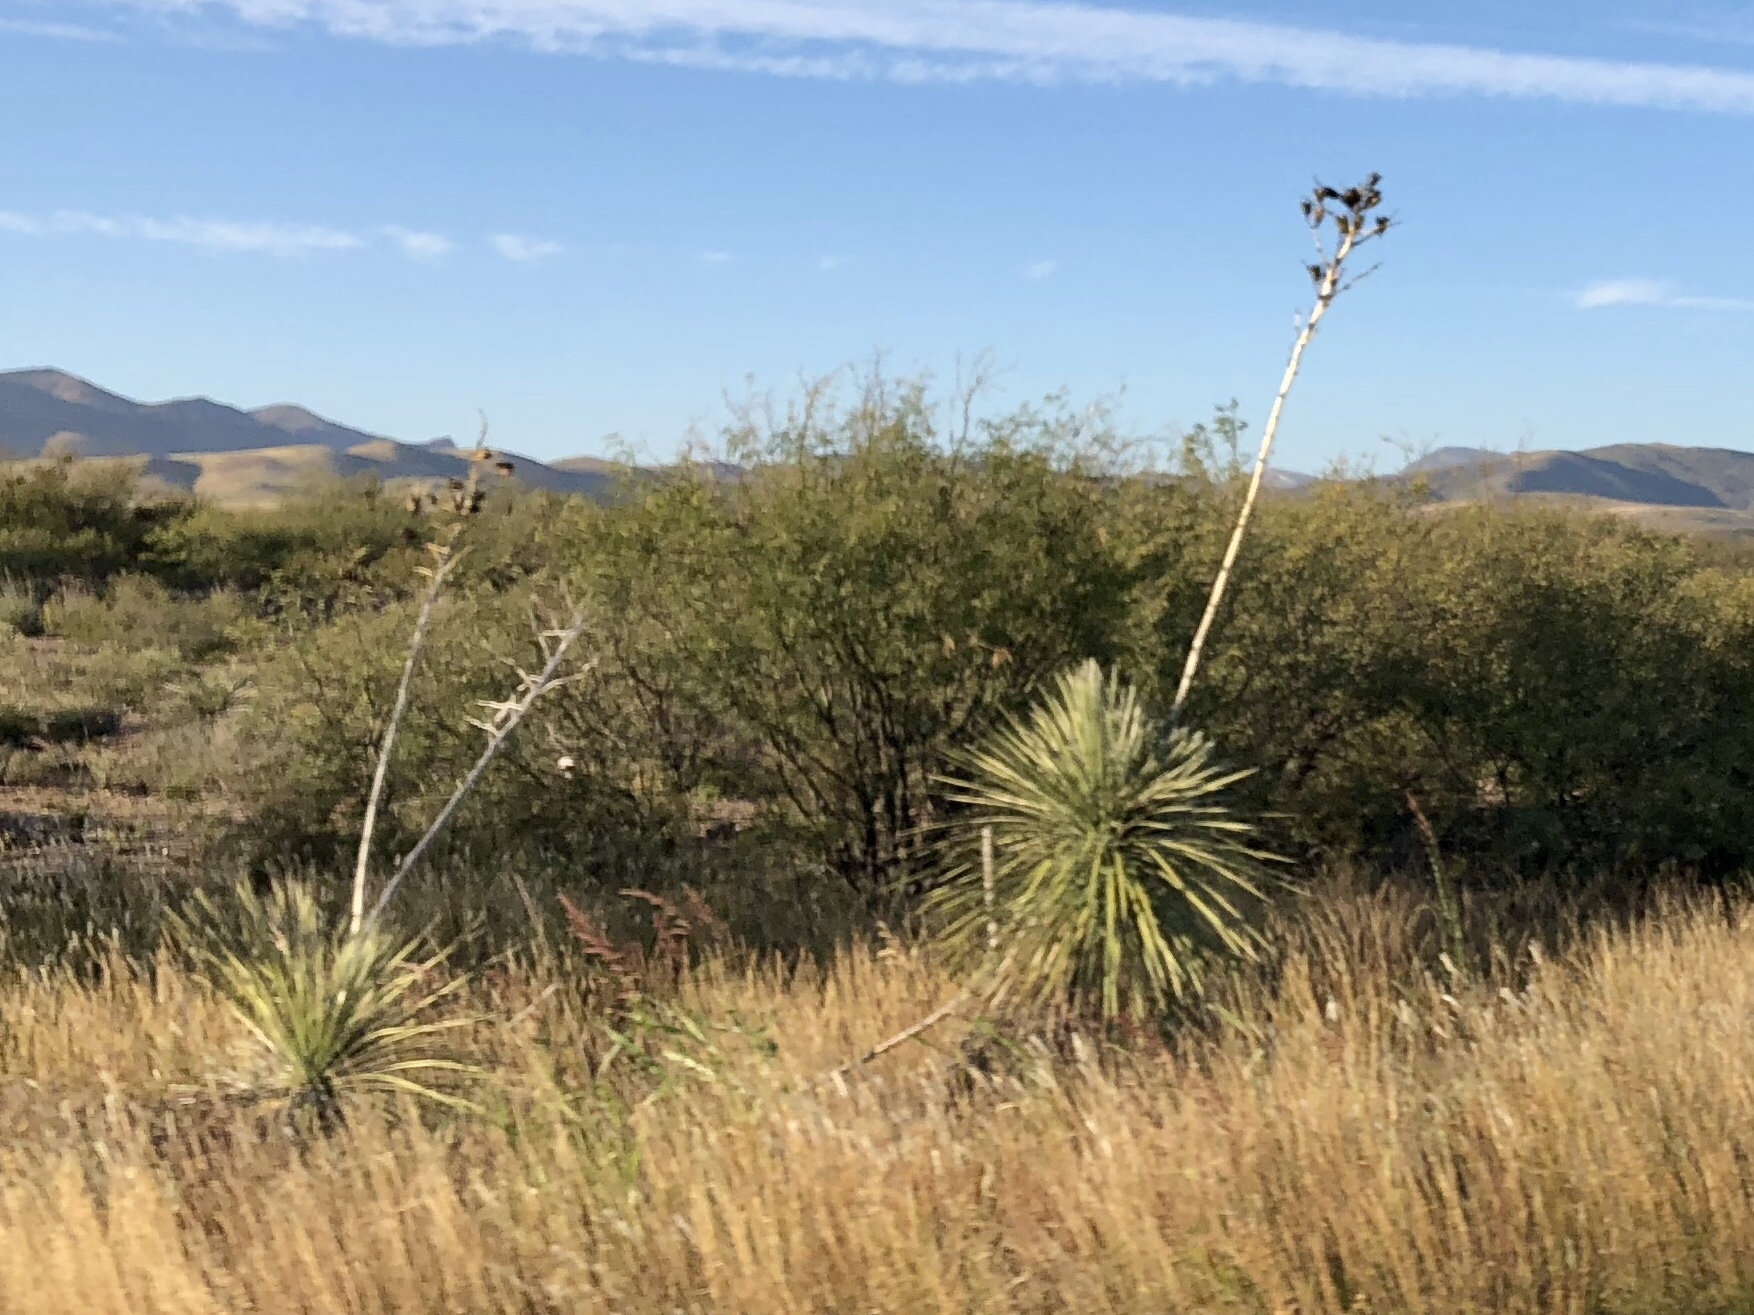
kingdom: Plantae
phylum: Tracheophyta
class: Liliopsida
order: Asparagales
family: Asparagaceae
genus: Yucca
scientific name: Yucca elata
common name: Palmella
